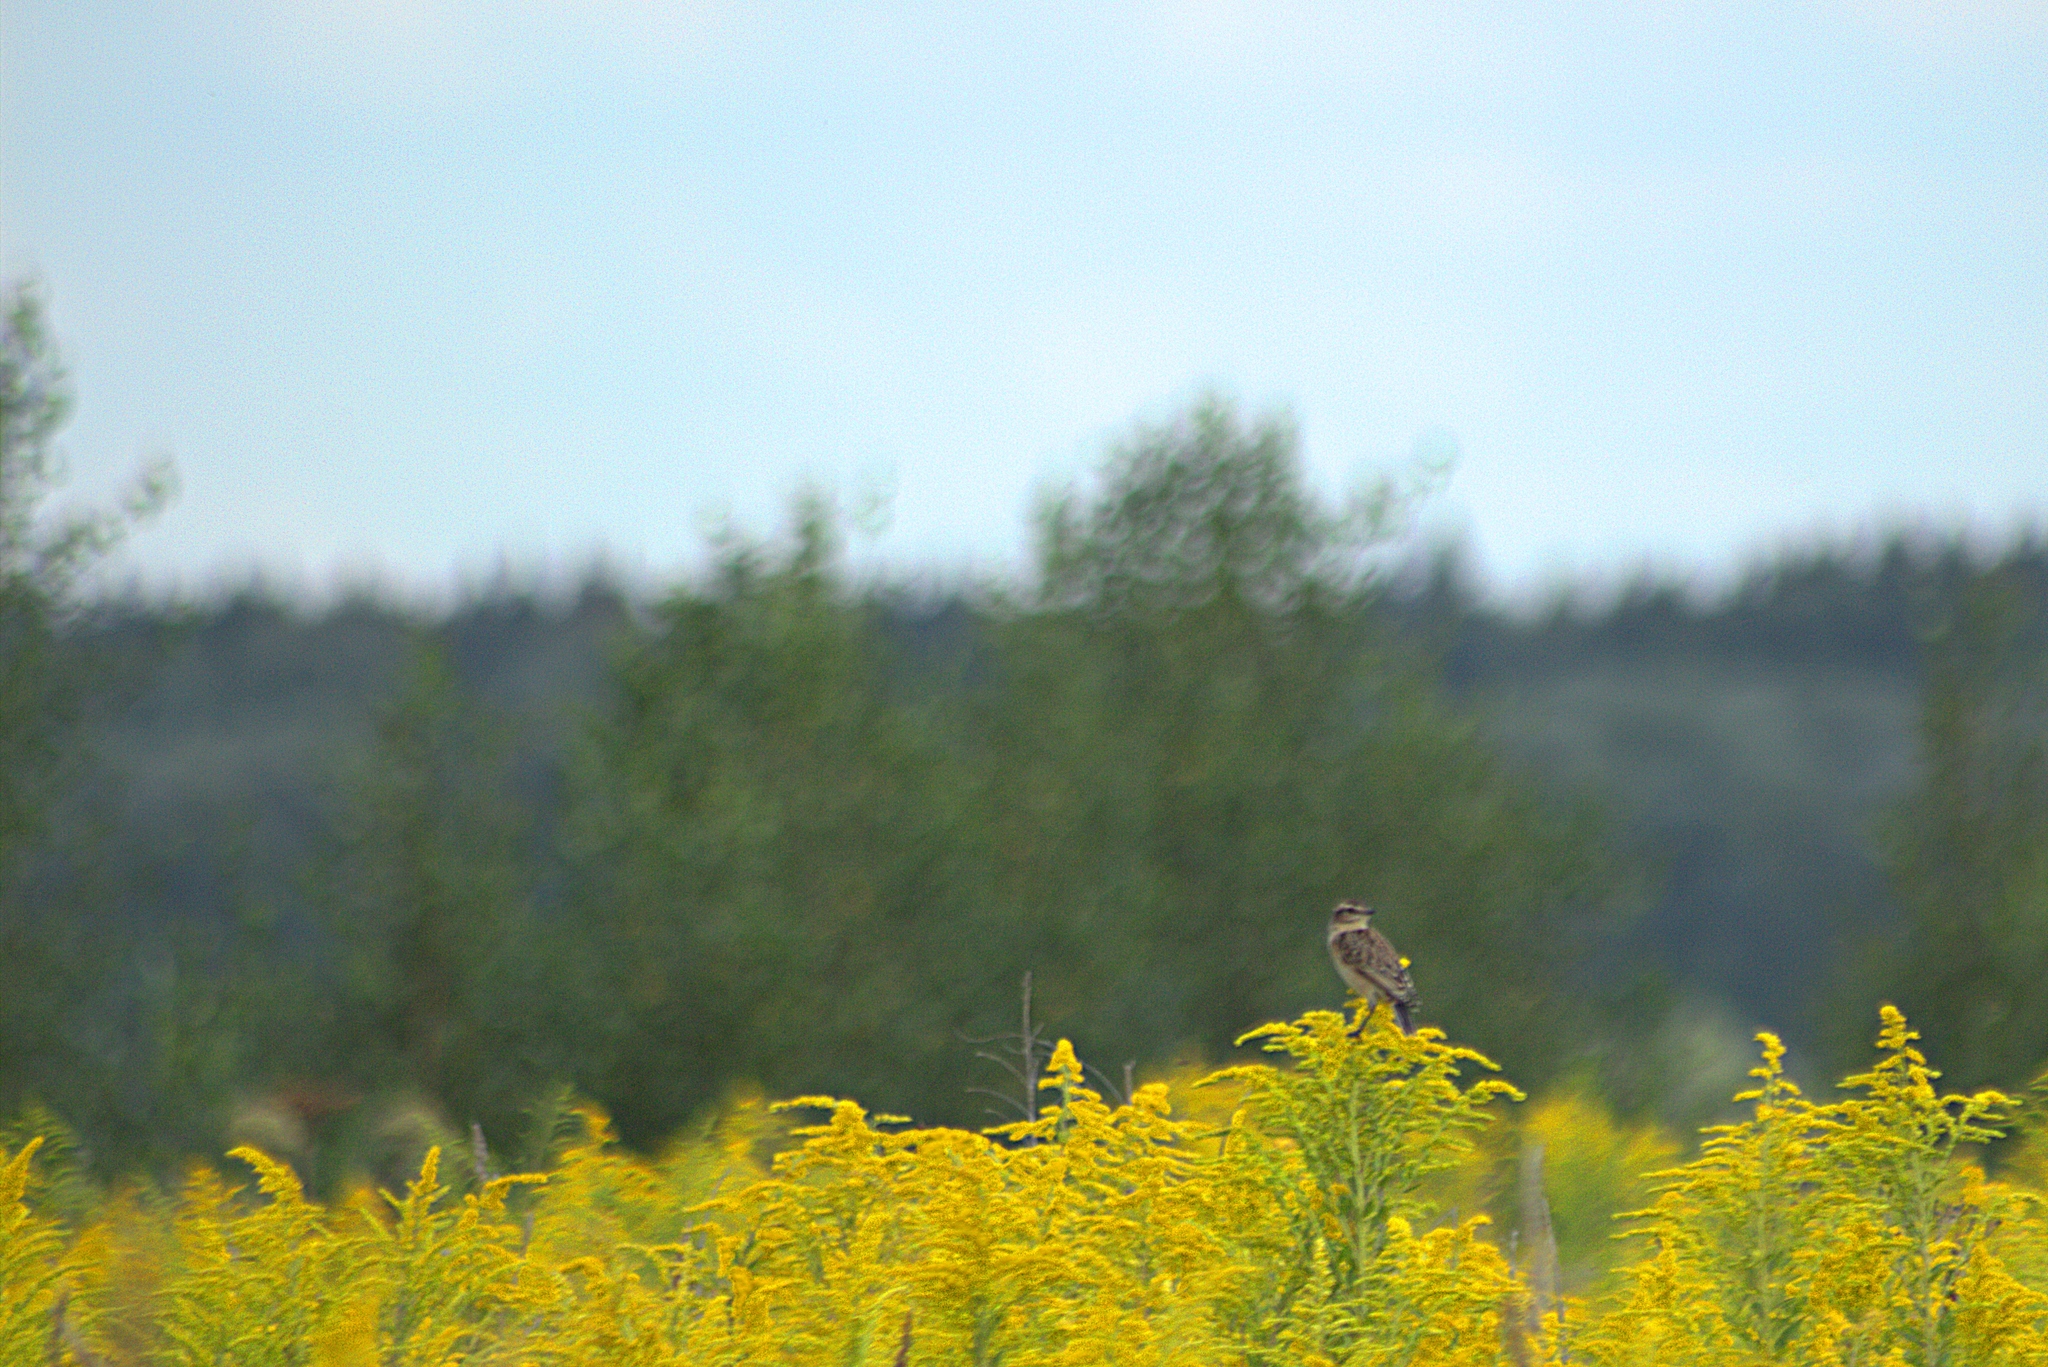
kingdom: Animalia
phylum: Chordata
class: Aves
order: Passeriformes
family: Muscicapidae
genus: Saxicola
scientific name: Saxicola rubetra
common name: Whinchat
